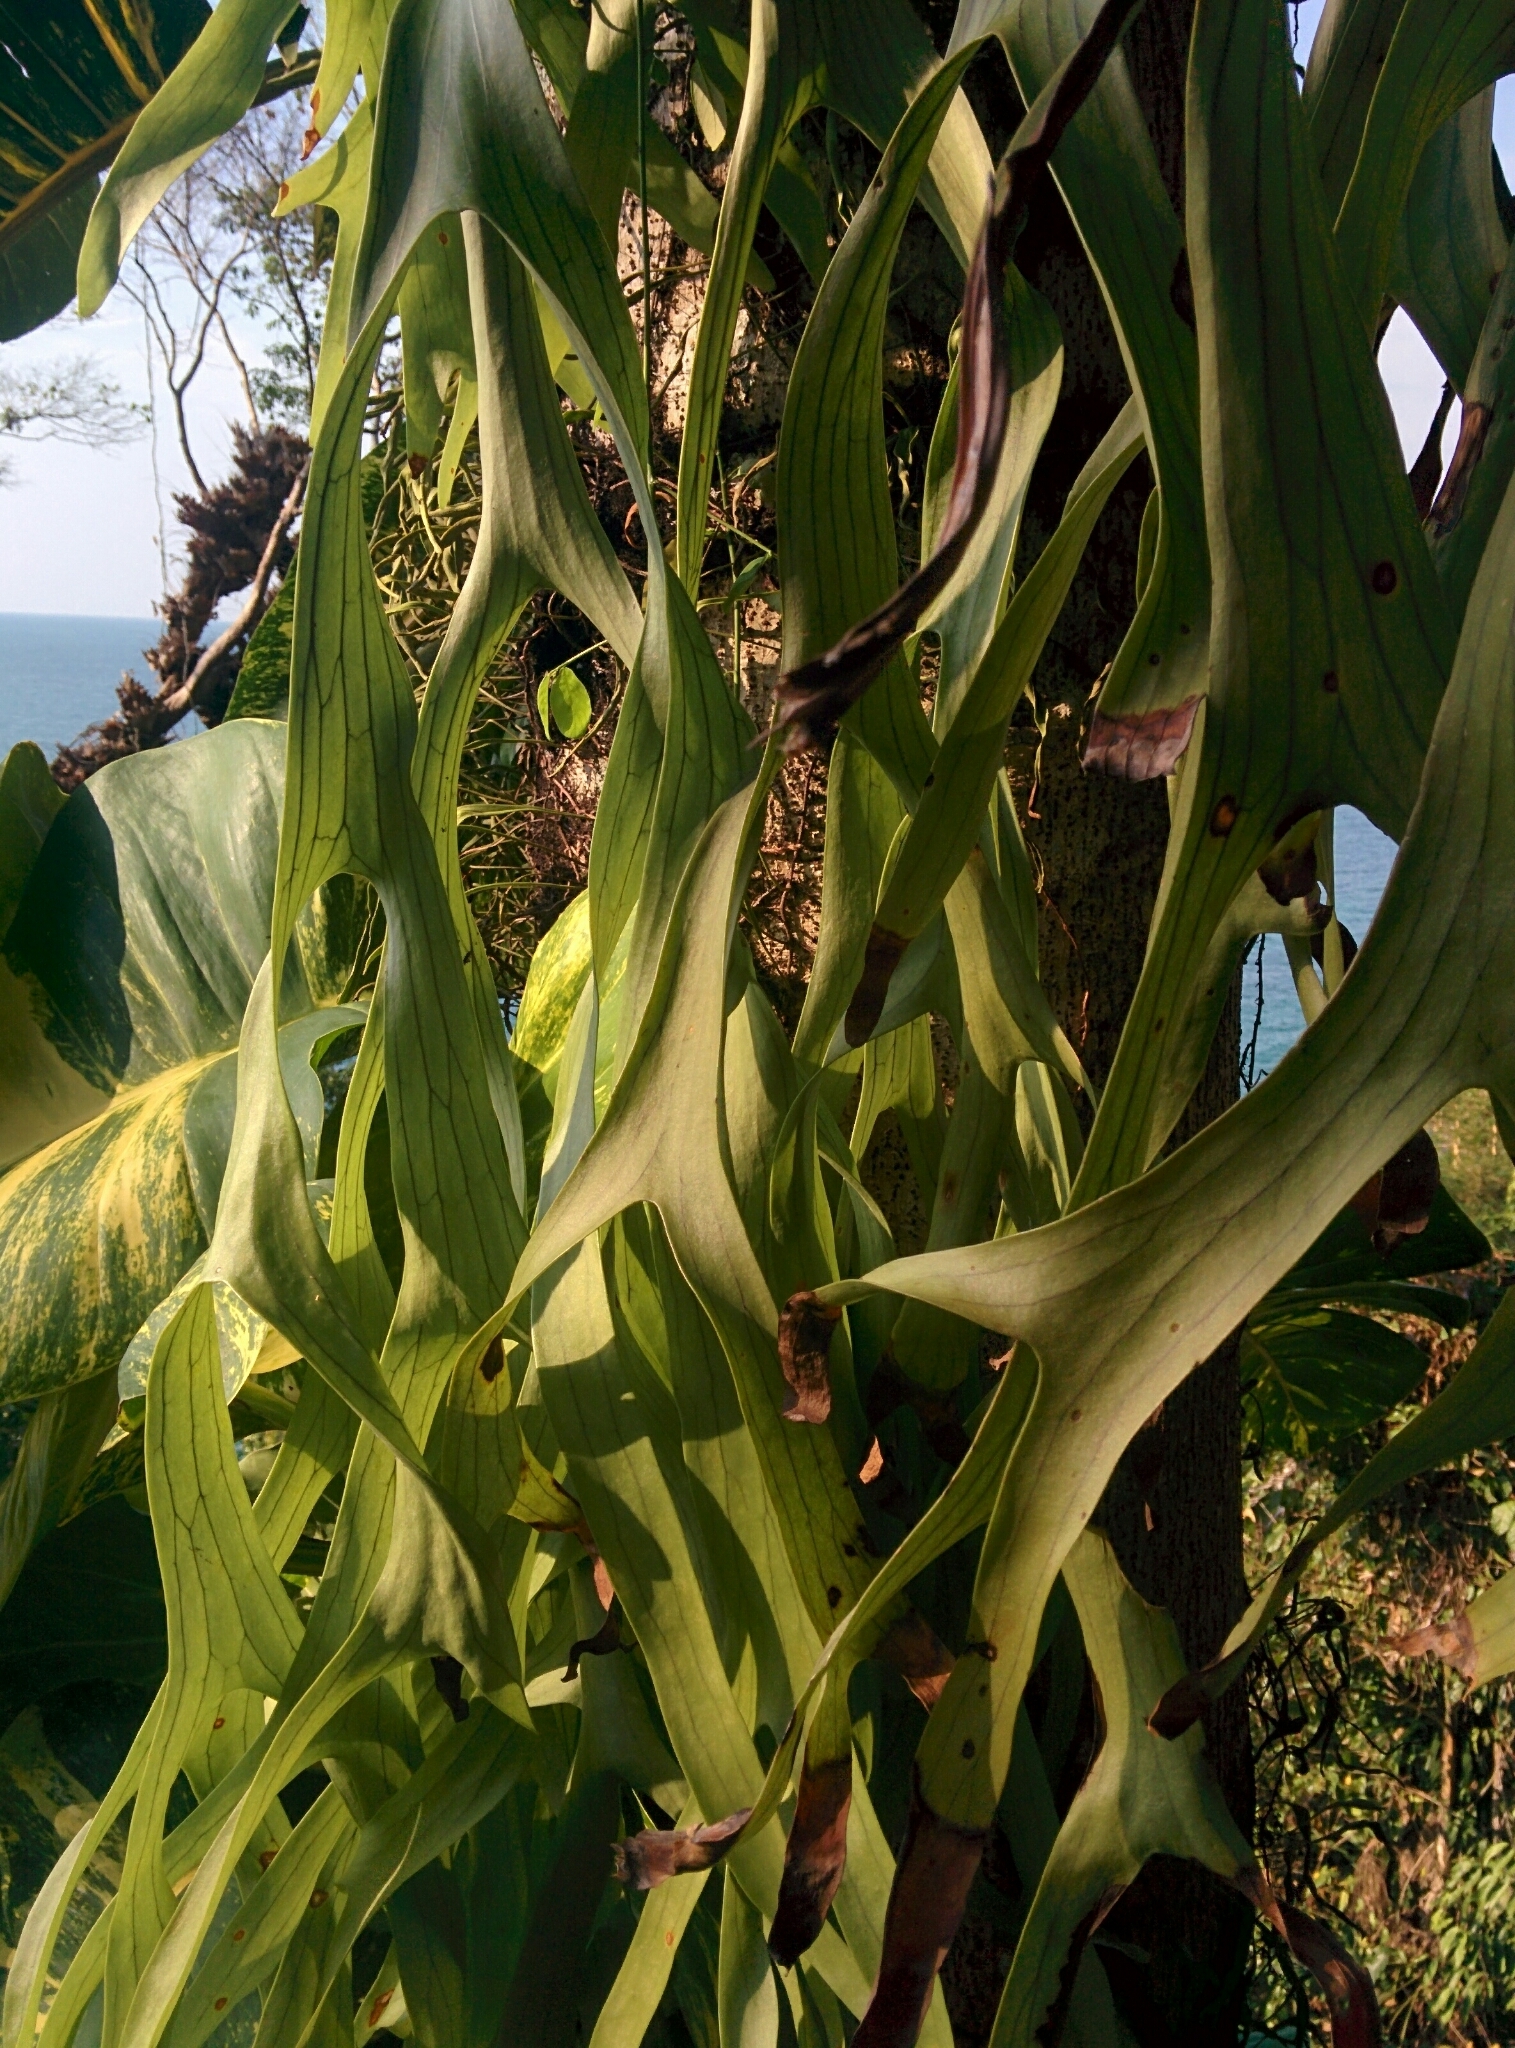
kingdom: Plantae
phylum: Tracheophyta
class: Polypodiopsida
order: Polypodiales
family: Polypodiaceae
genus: Platycerium
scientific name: Platycerium coronarium
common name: Elkhorn fern
